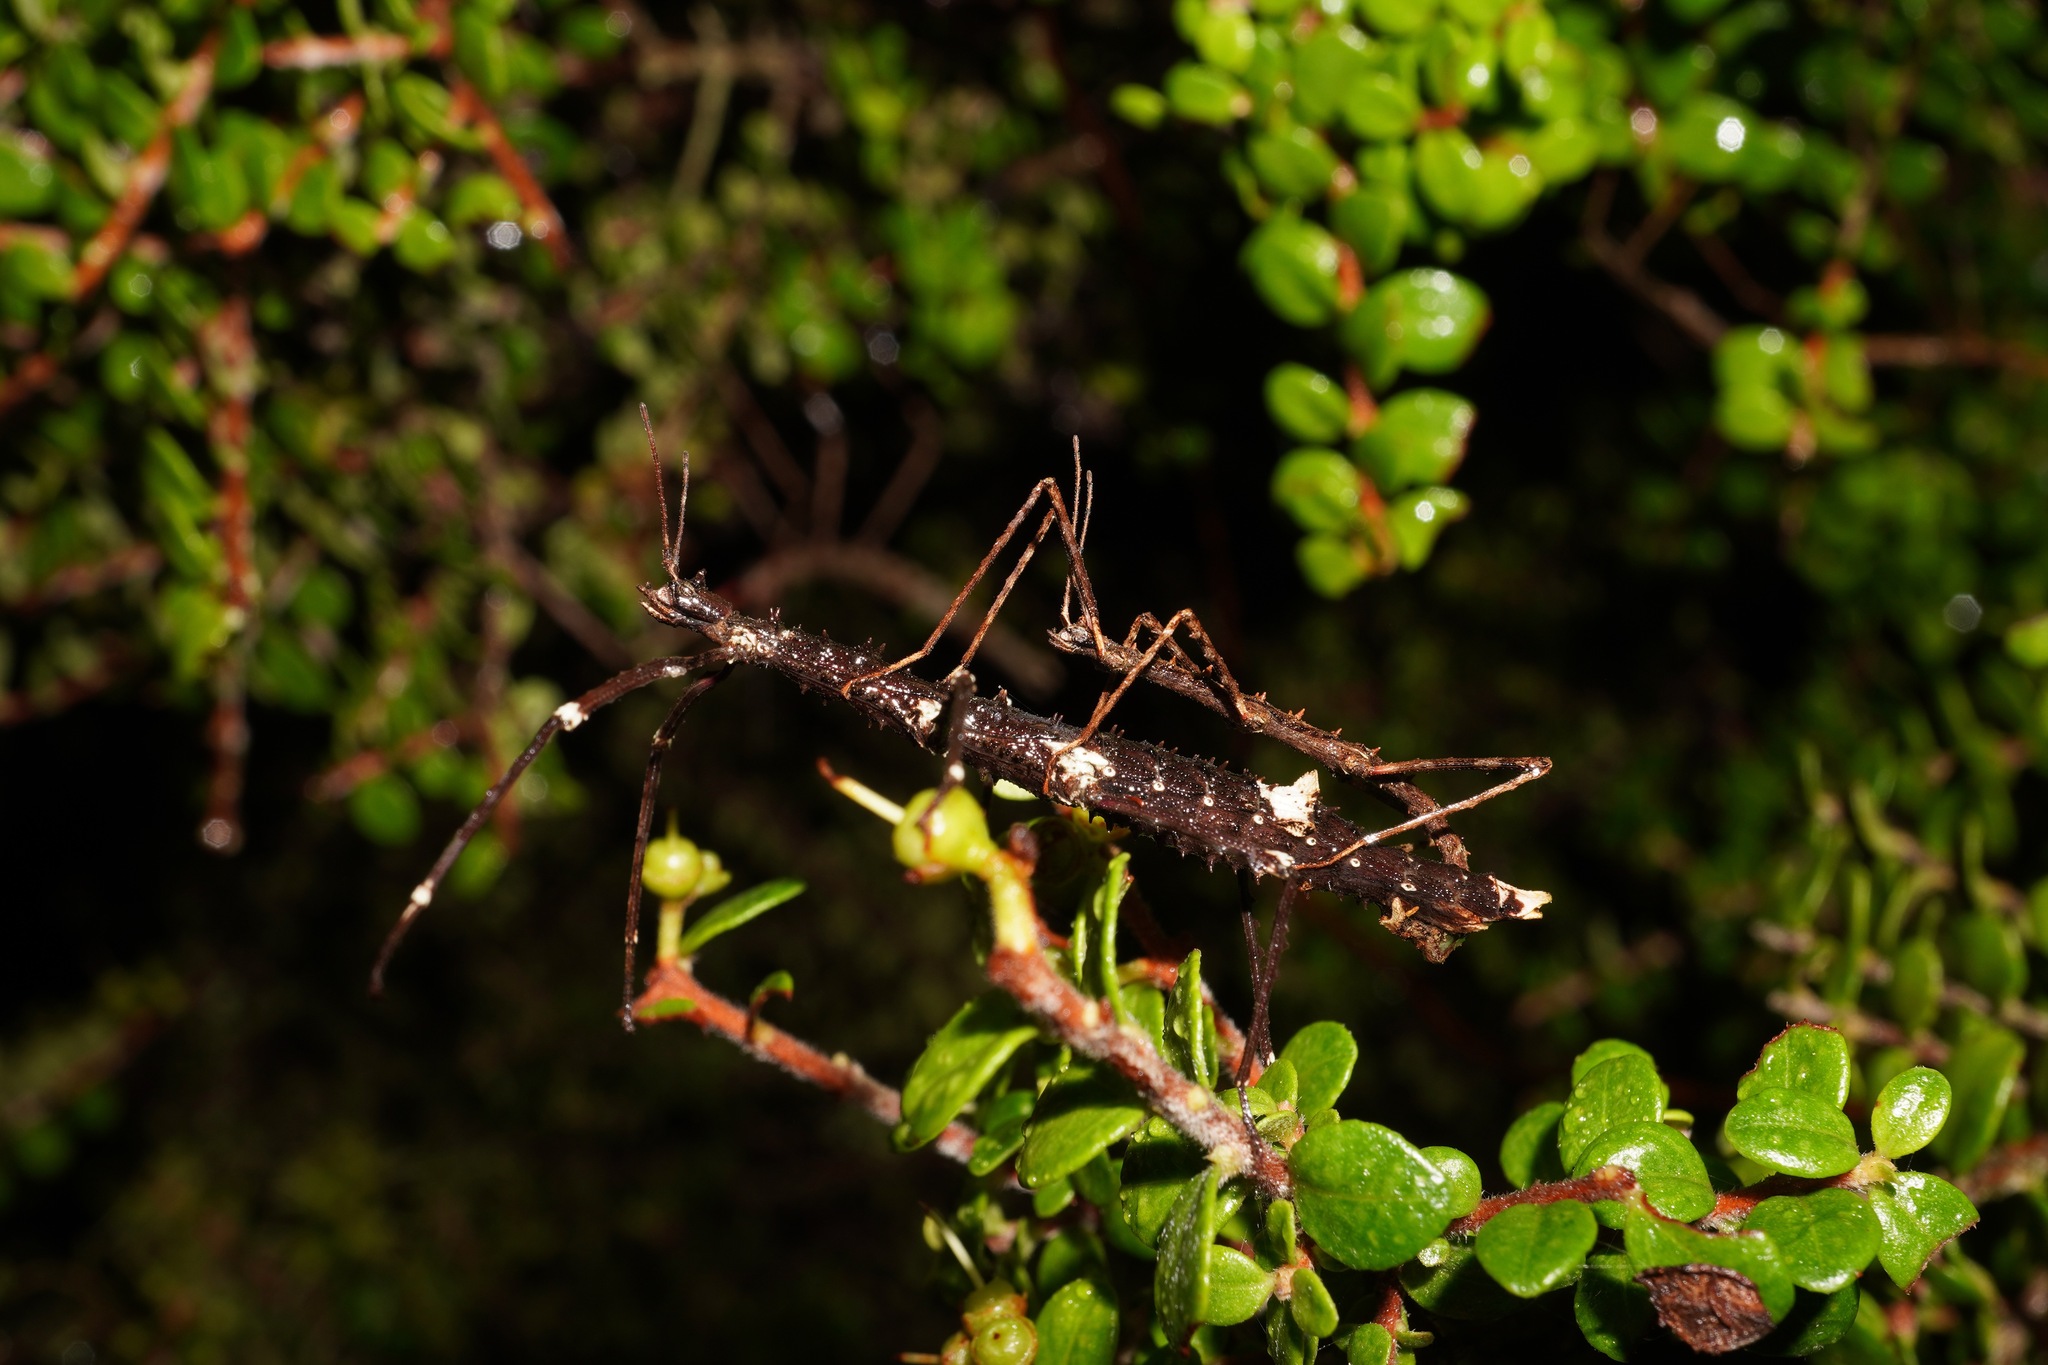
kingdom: Animalia
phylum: Arthropoda
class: Insecta
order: Phasmida
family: Phasmatidae
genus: Micrarchus
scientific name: Micrarchus hystriculeus
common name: The lesser spiny stick insect
